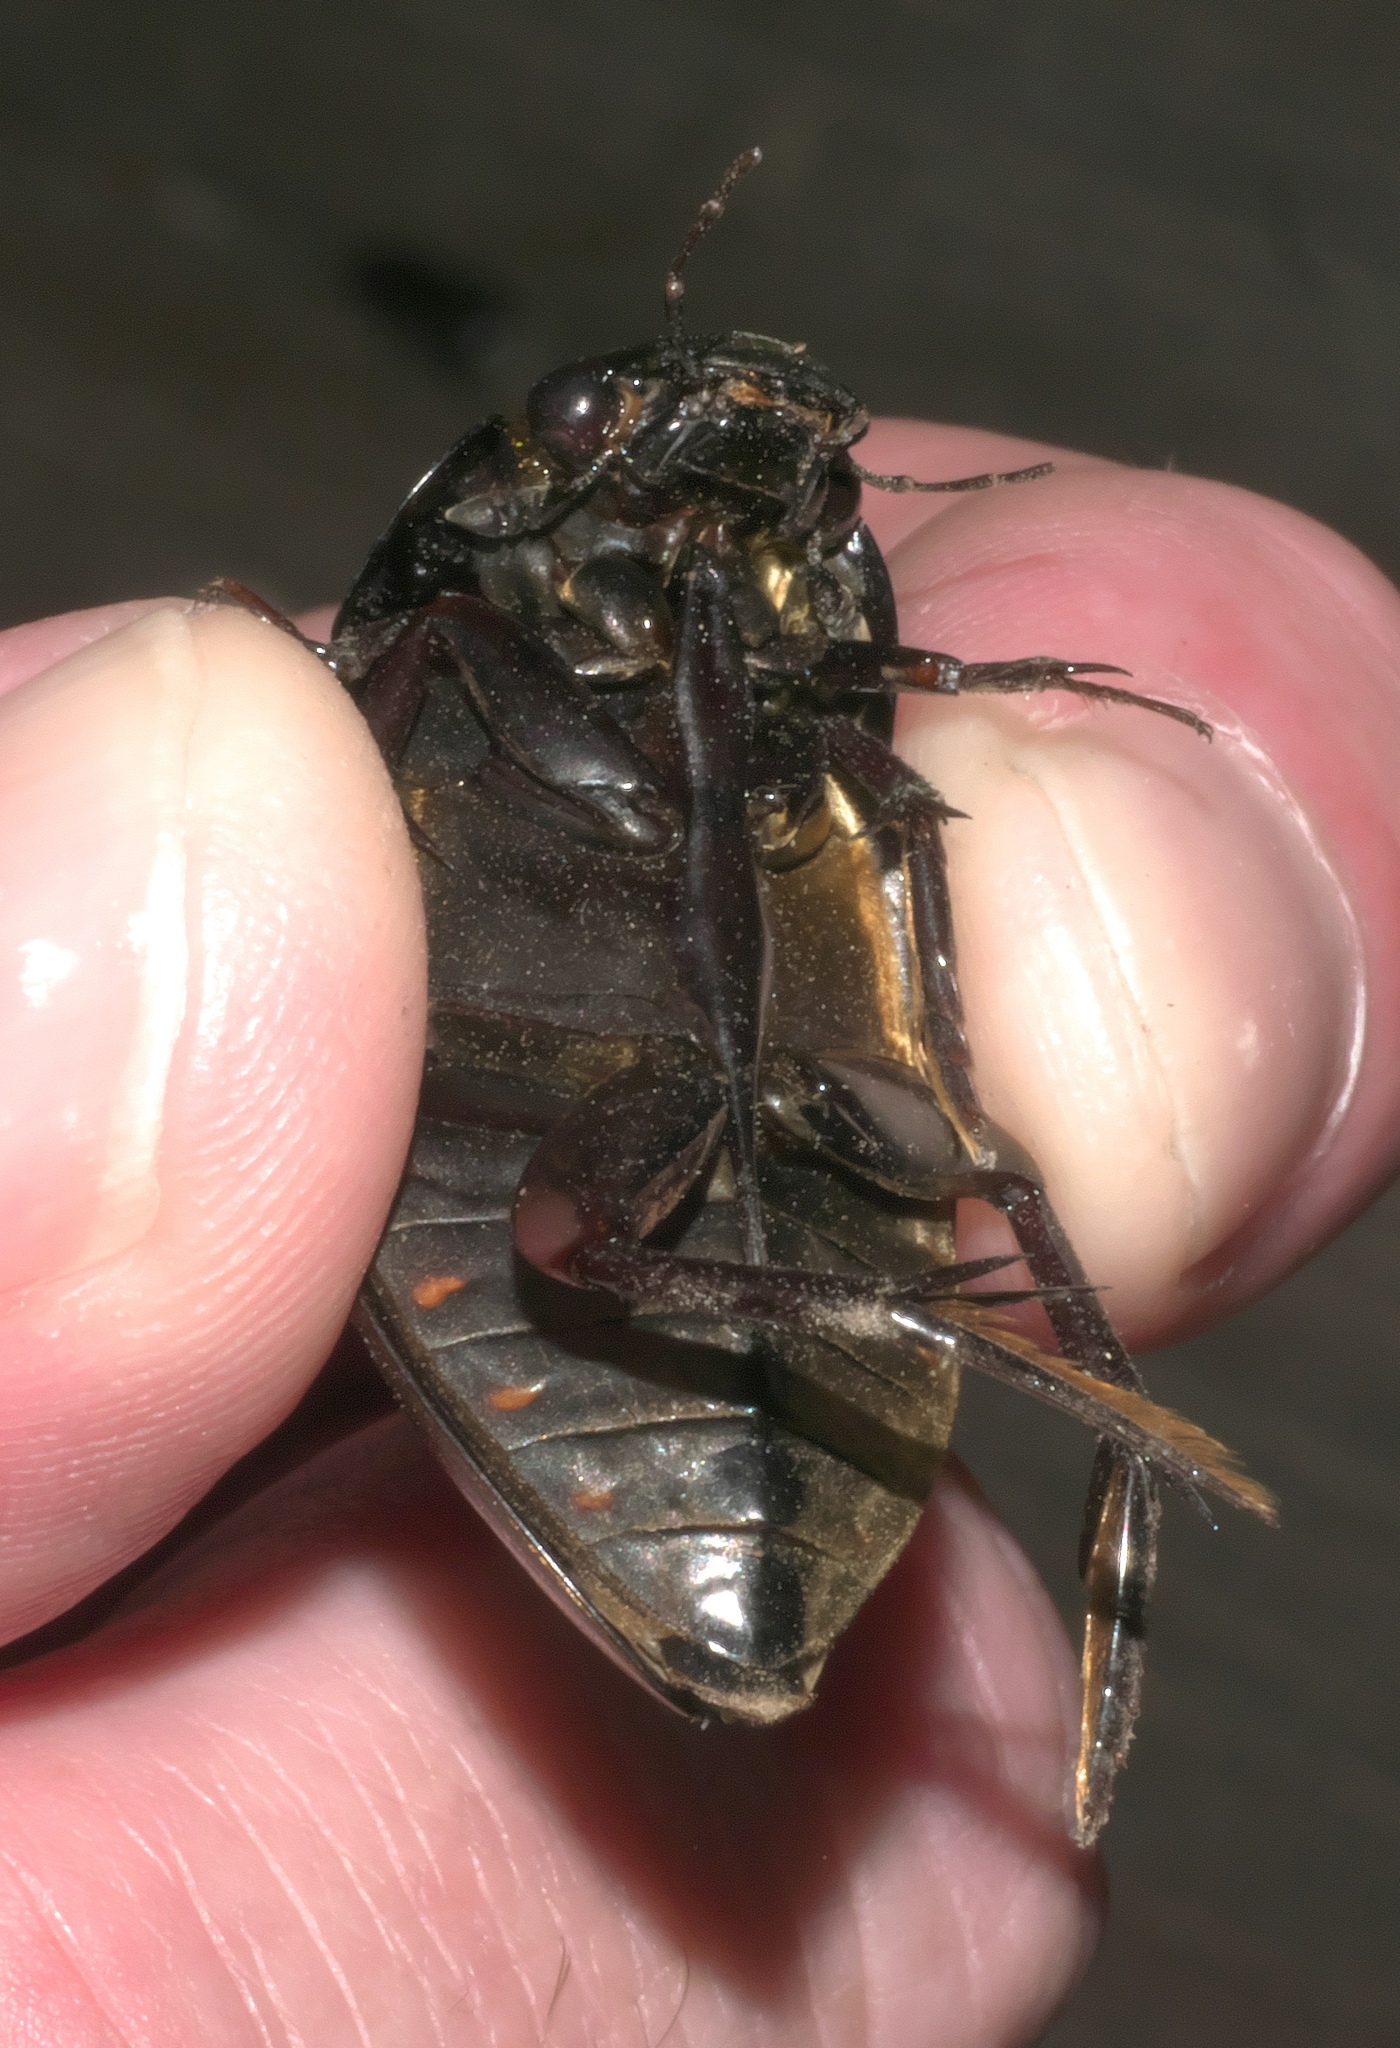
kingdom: Animalia
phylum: Arthropoda
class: Insecta
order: Coleoptera
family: Hydrophilidae
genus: Hydrophilus
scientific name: Hydrophilus ovatus
